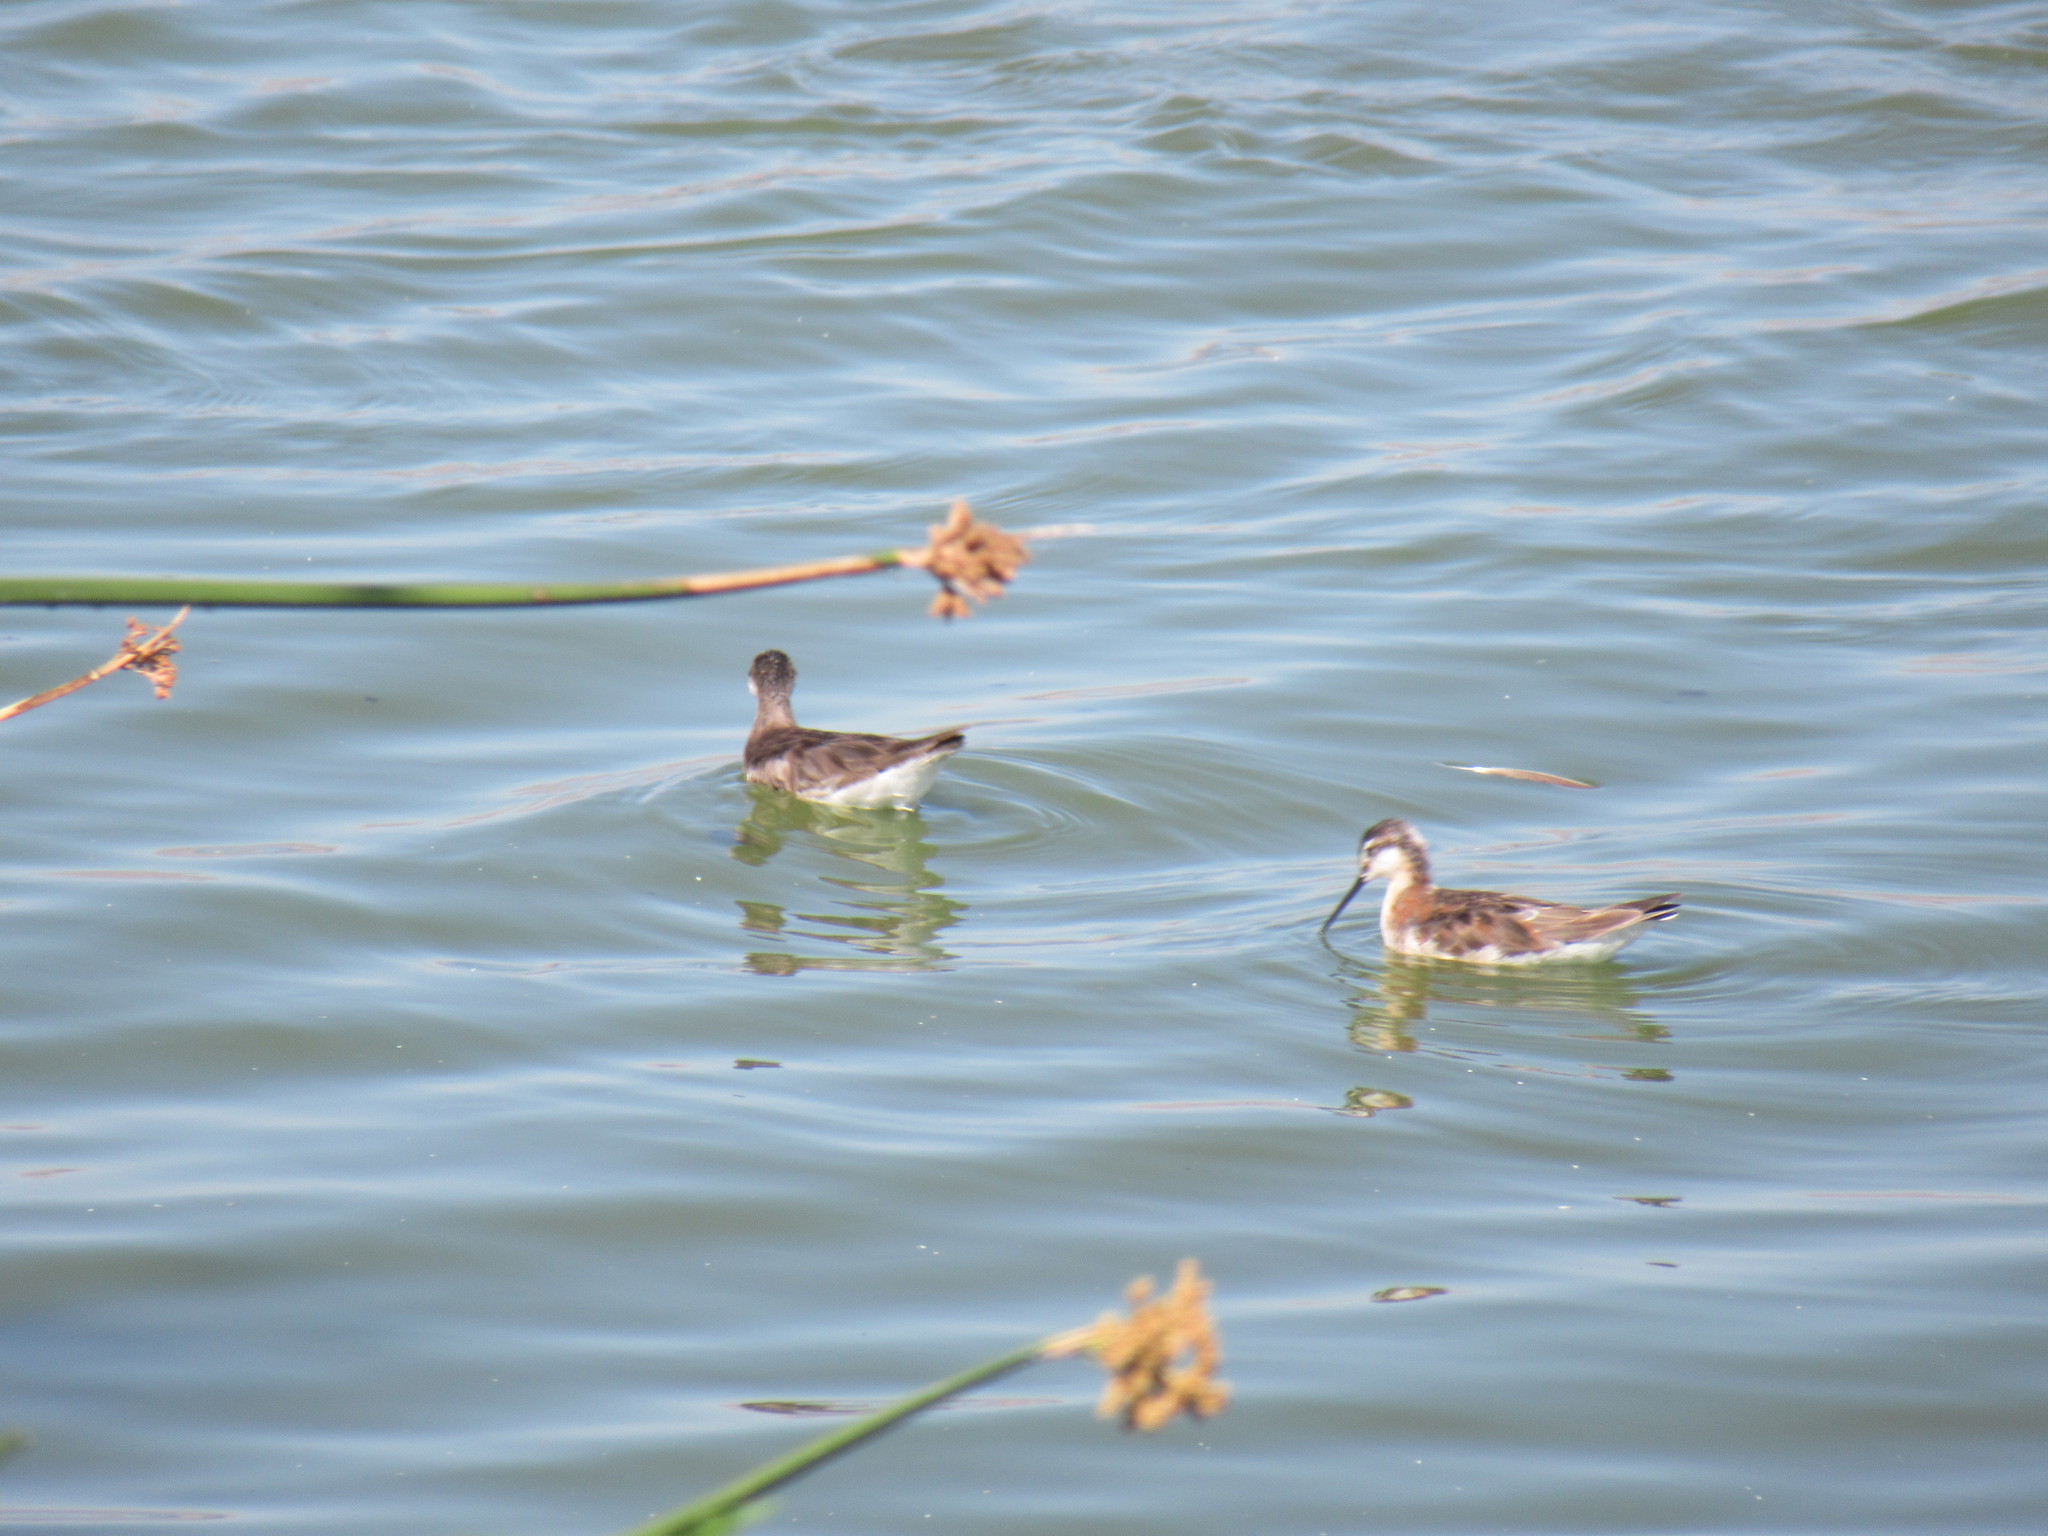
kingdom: Animalia
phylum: Chordata
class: Aves
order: Charadriiformes
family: Scolopacidae
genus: Phalaropus
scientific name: Phalaropus tricolor
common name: Wilson's phalarope
